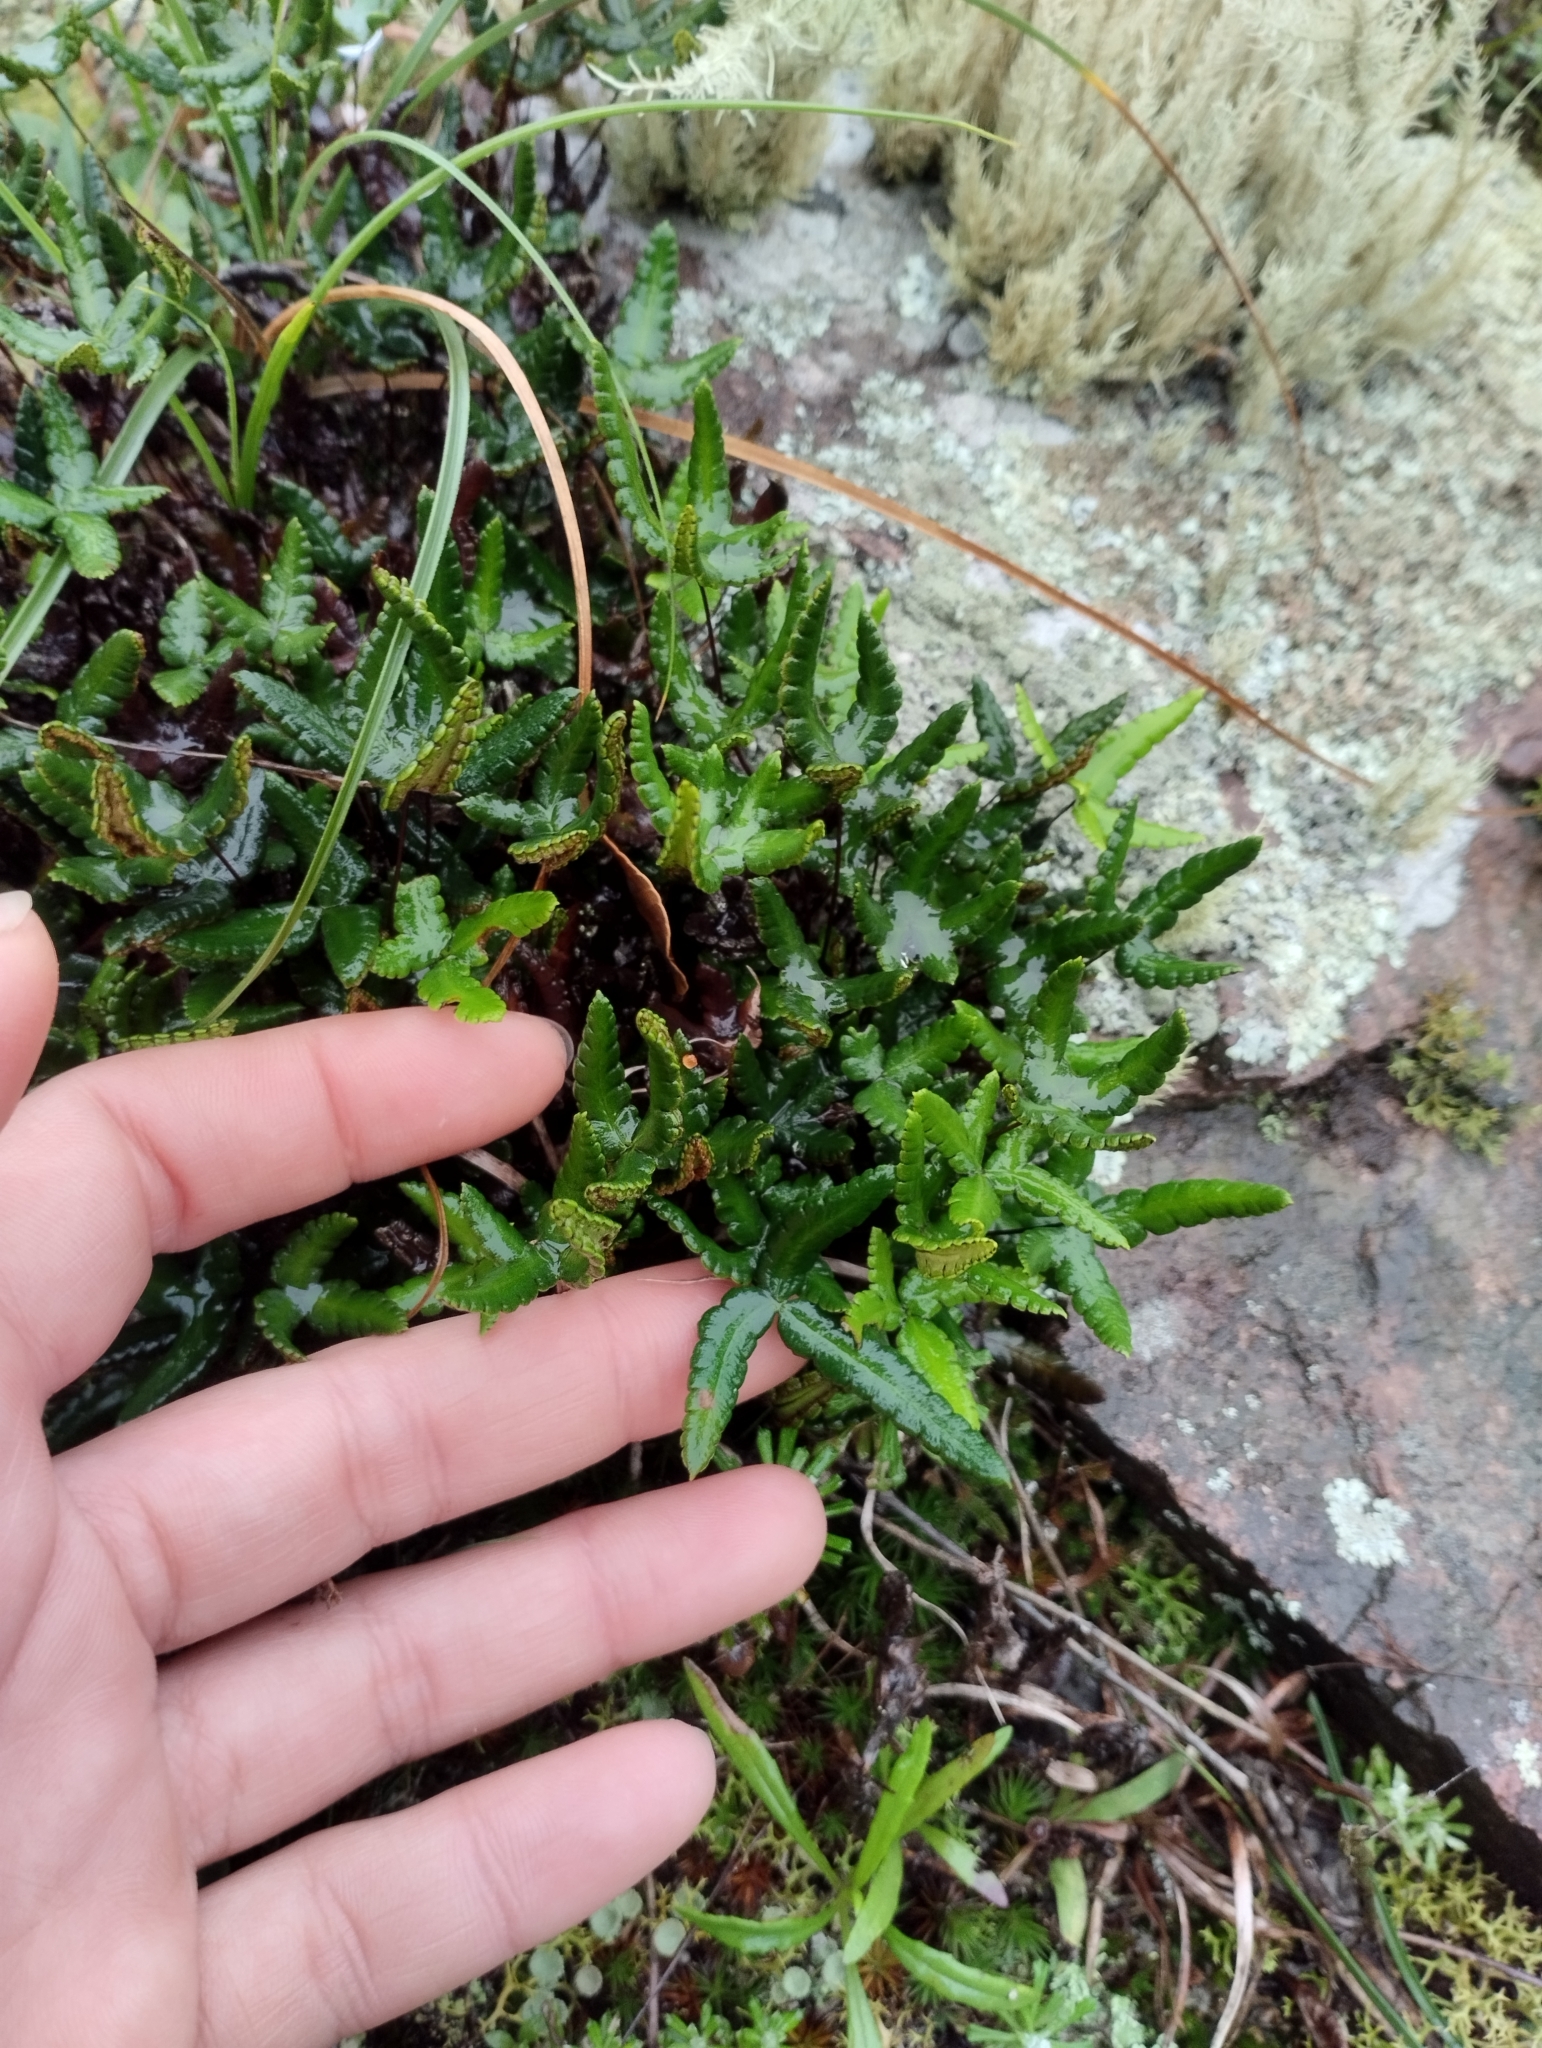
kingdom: Plantae
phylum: Tracheophyta
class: Polypodiopsida
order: Polypodiales
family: Pteridaceae
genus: Doryopteris
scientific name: Doryopteris triphylla
